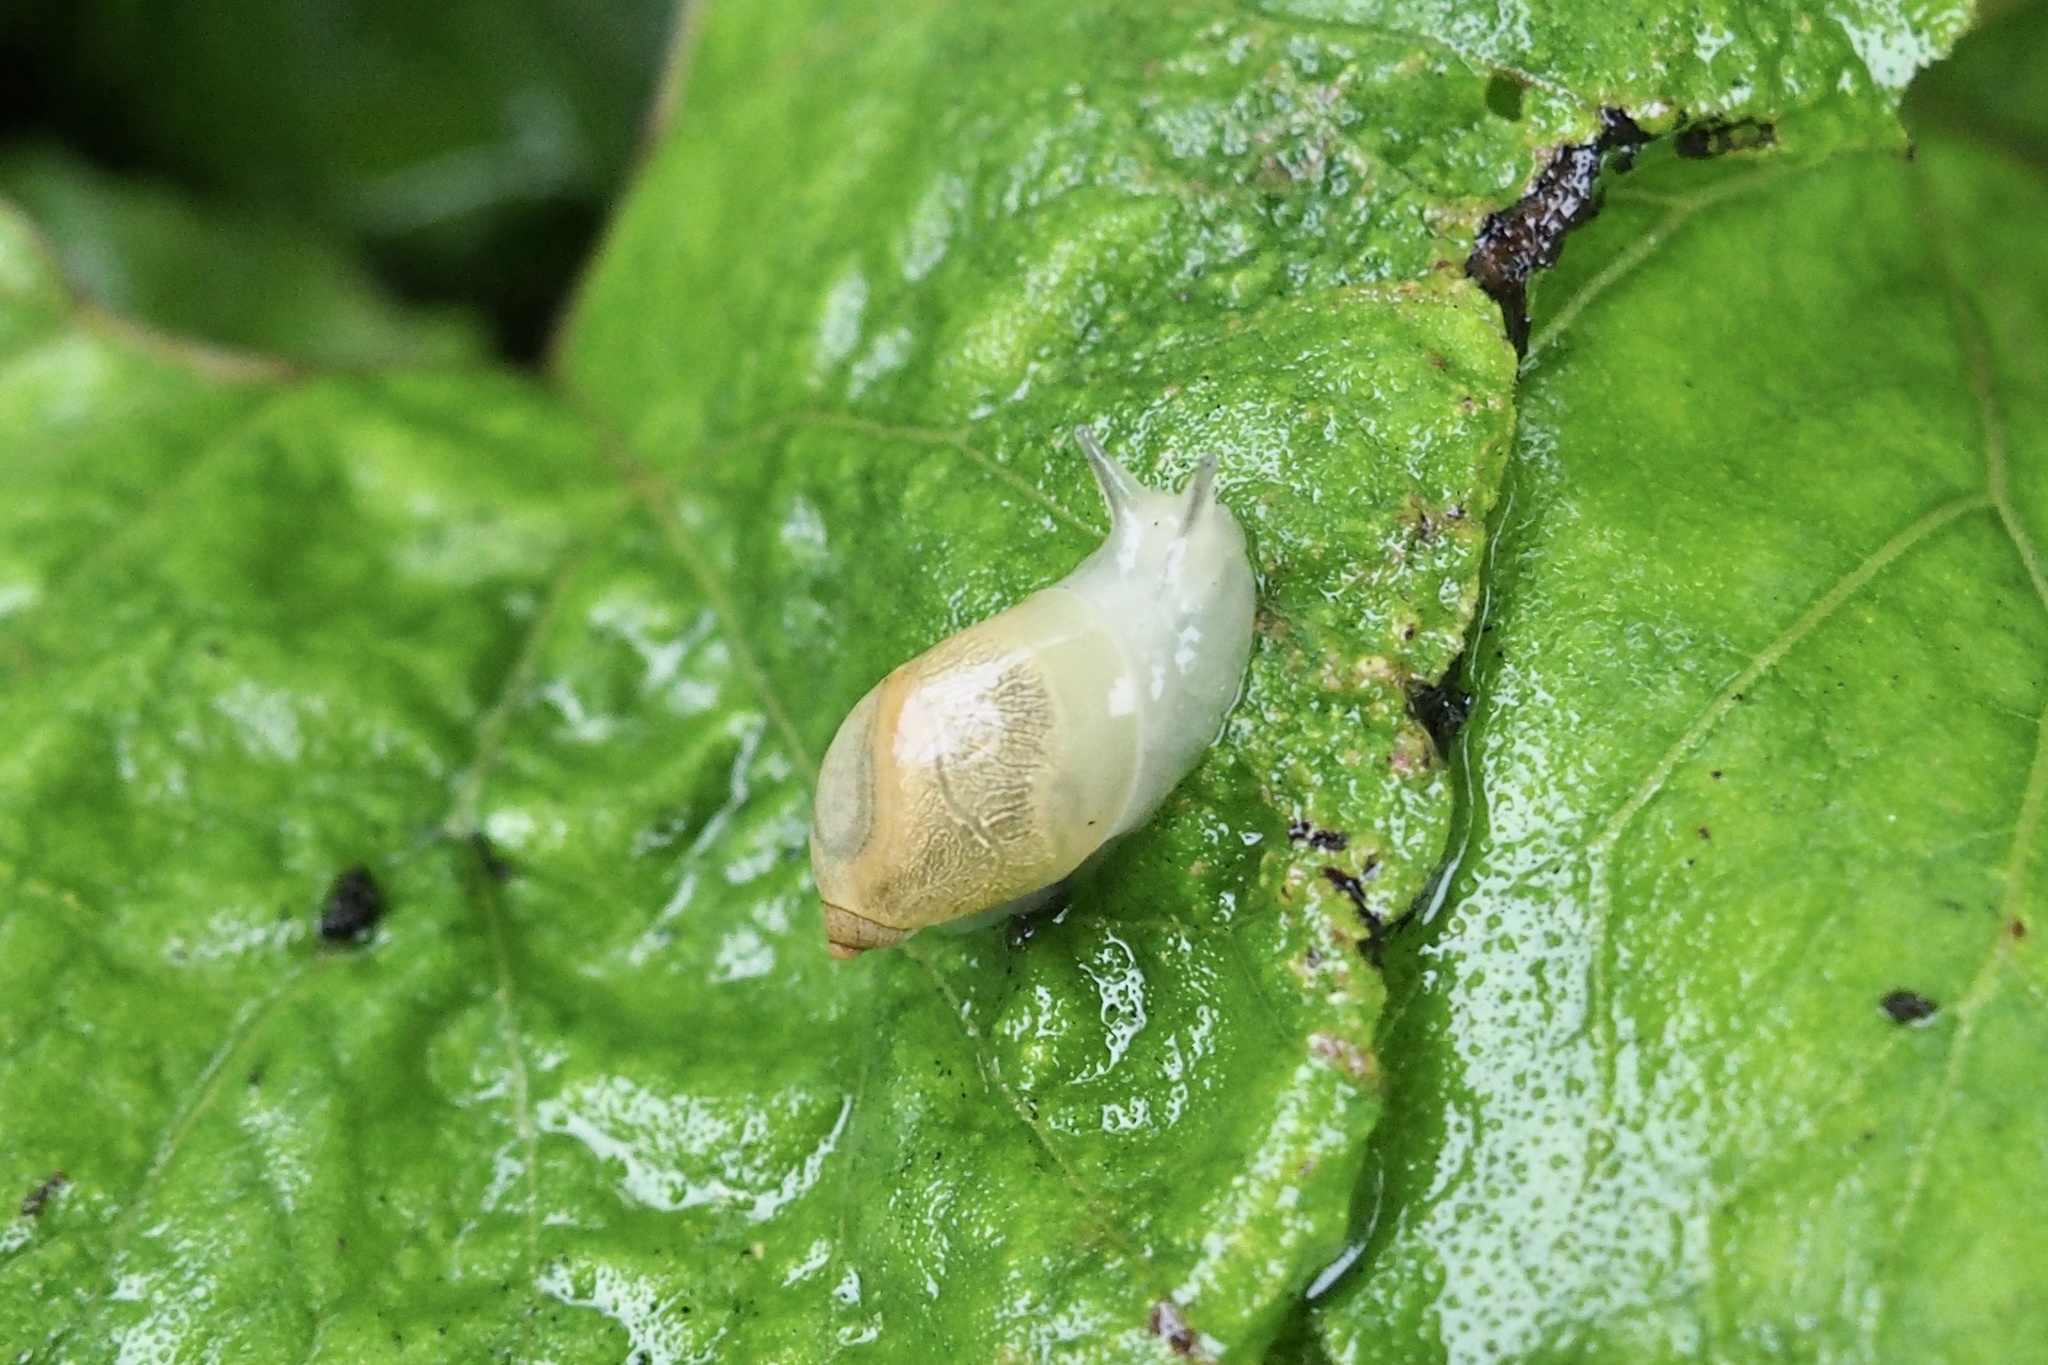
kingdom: Animalia
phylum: Mollusca
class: Gastropoda
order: Stylommatophora
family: Succineidae
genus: Succinea
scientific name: Succinea lauta
